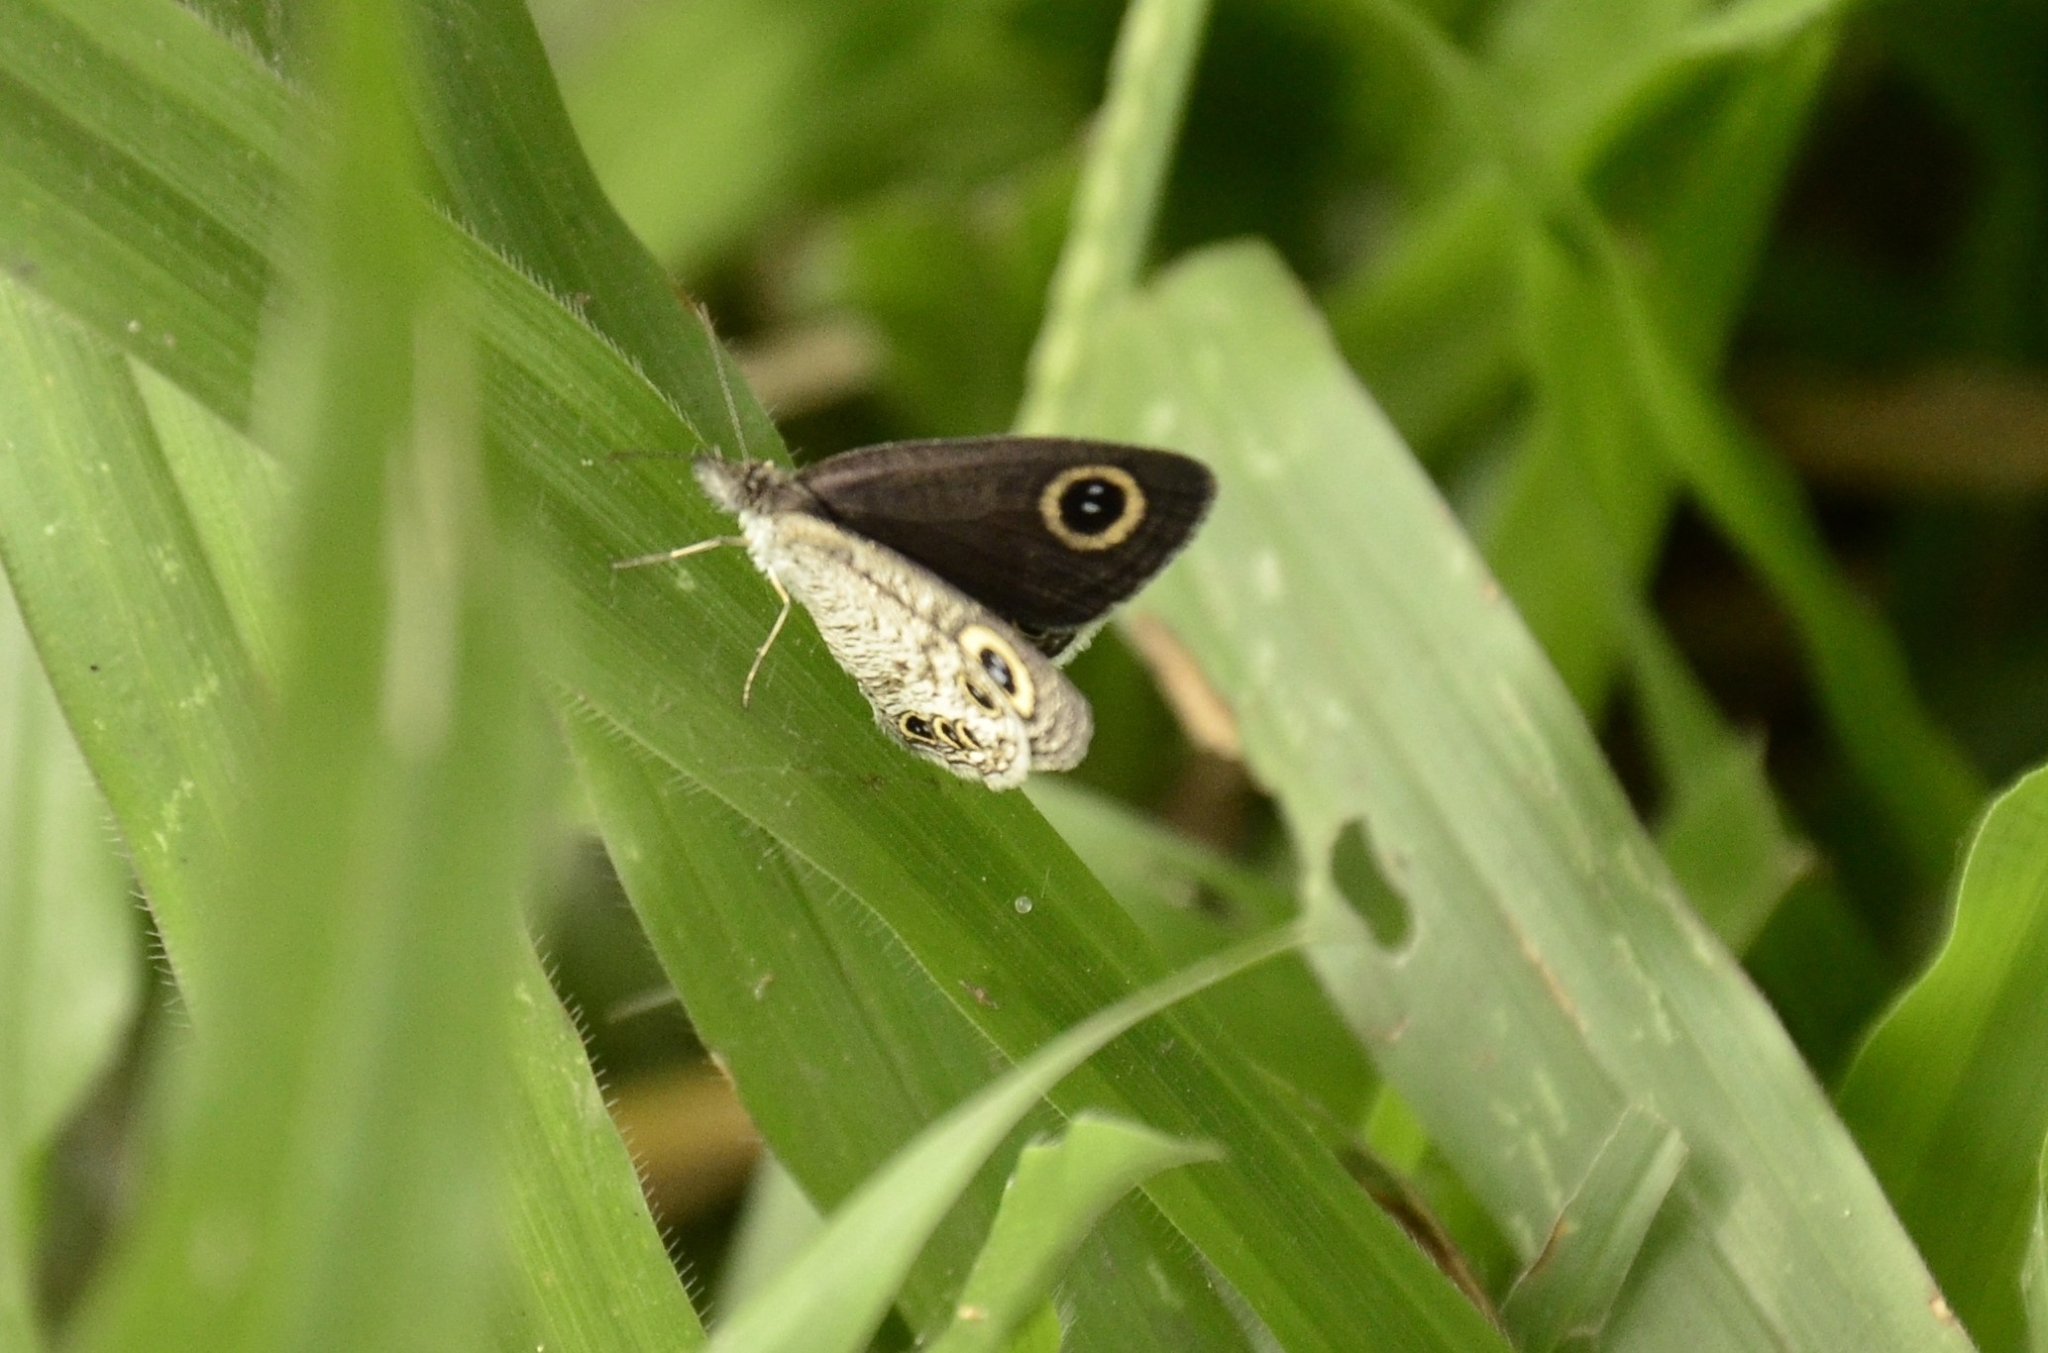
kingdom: Animalia
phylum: Arthropoda
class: Insecta
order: Lepidoptera
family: Nymphalidae
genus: Ypthima
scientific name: Ypthima huebneri
